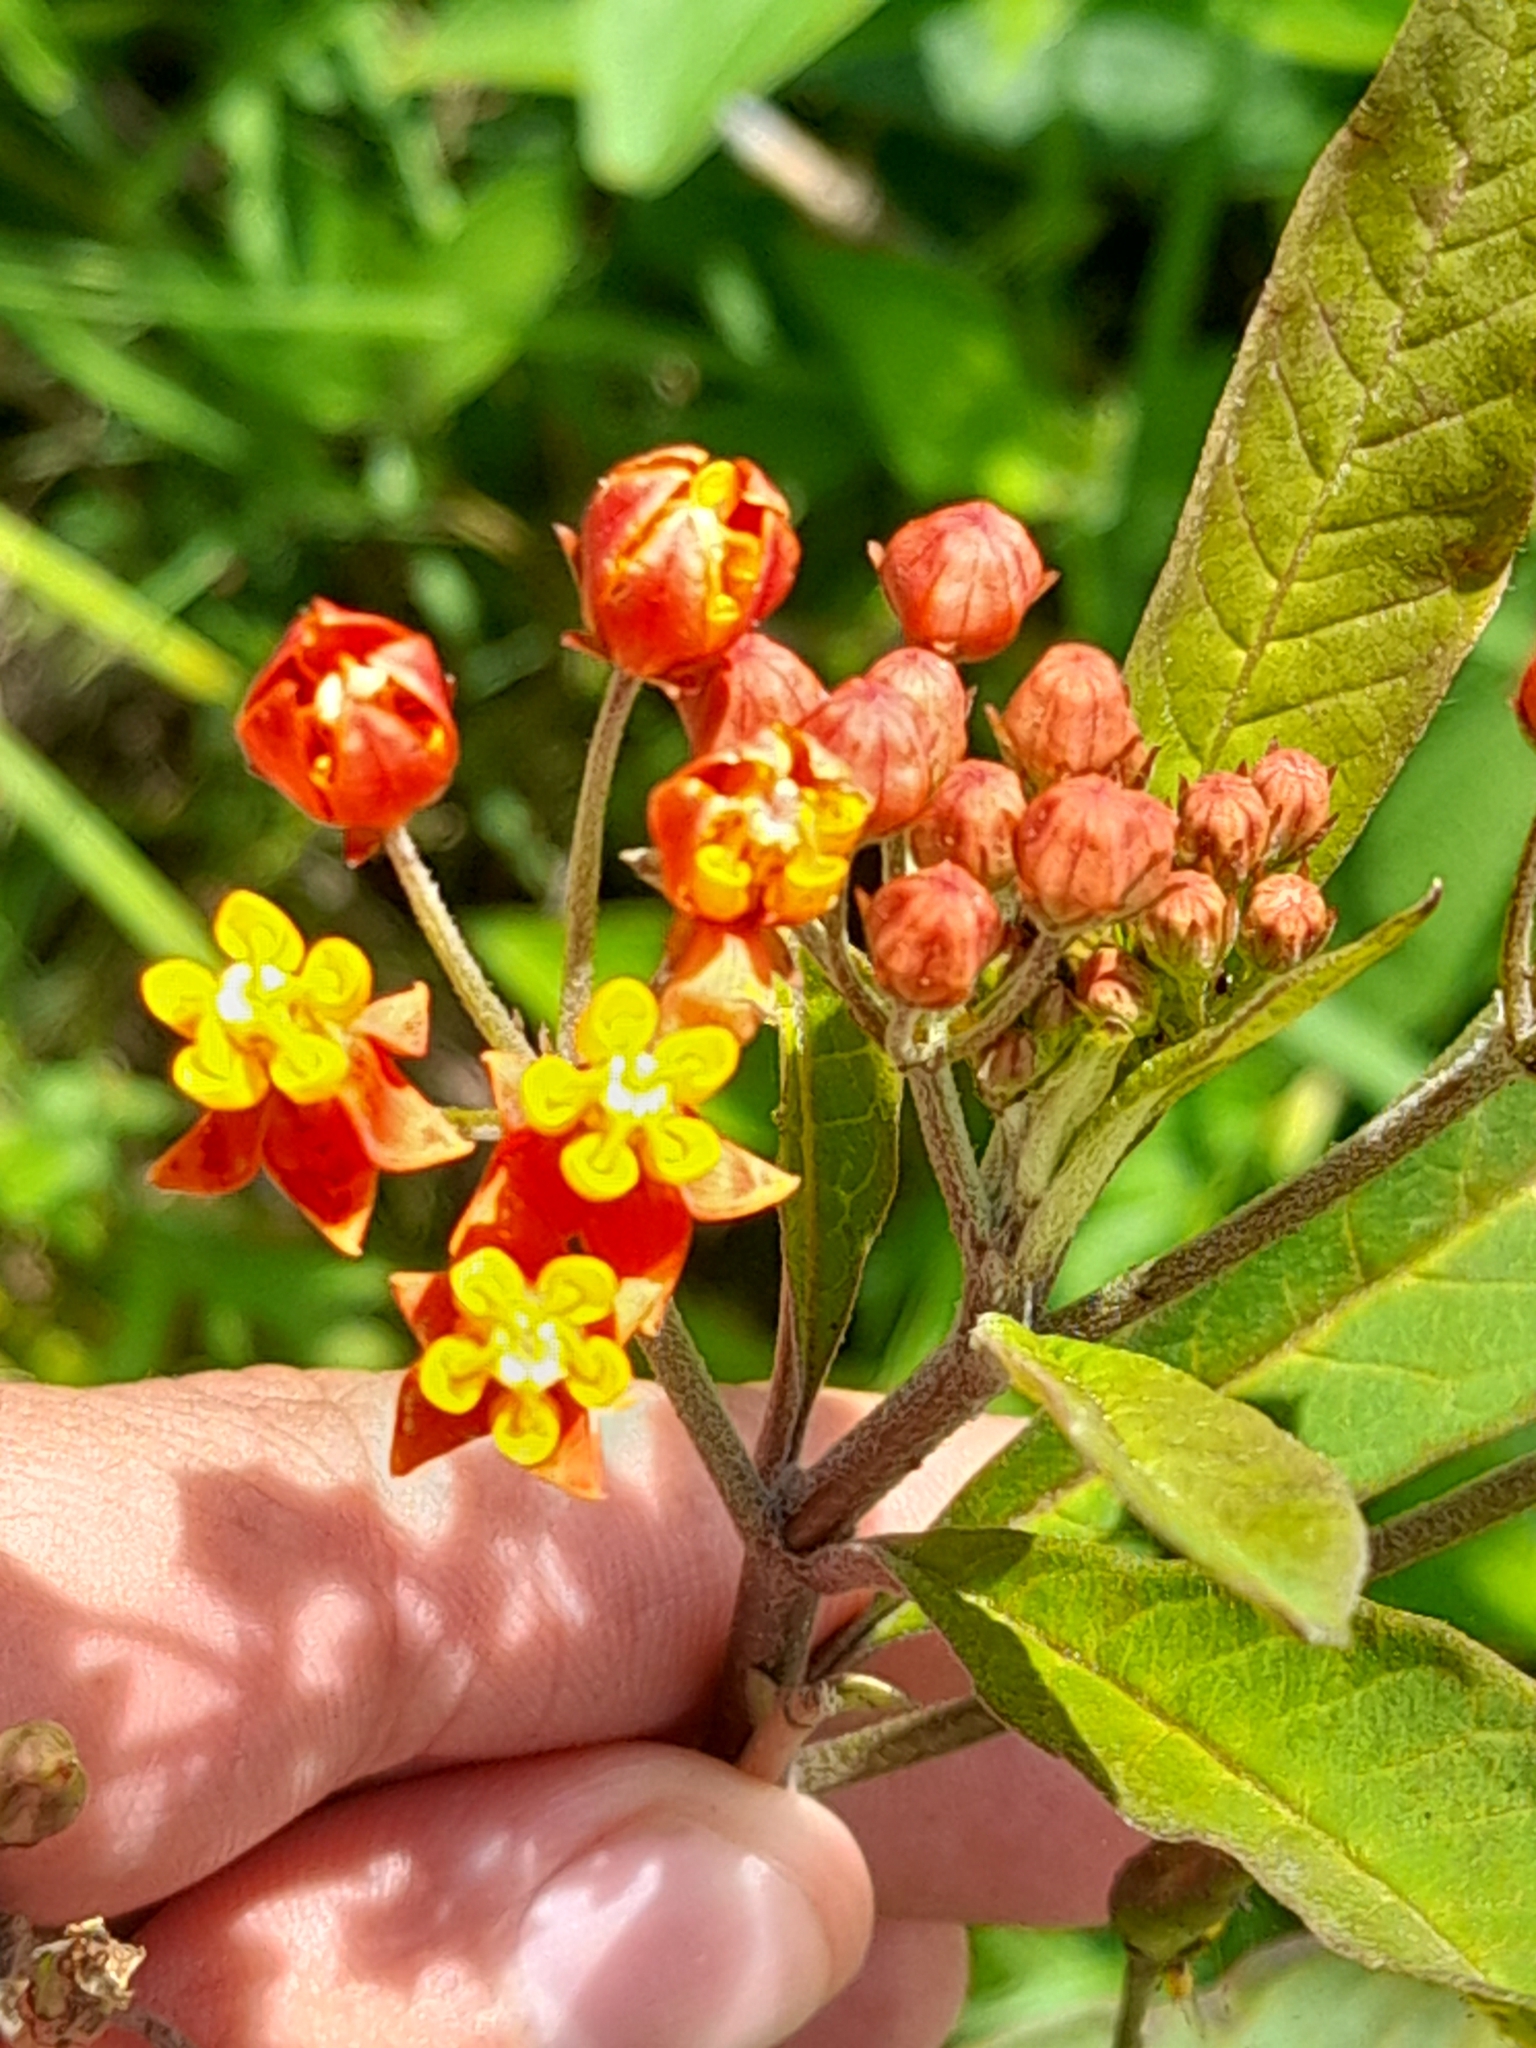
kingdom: Plantae
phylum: Tracheophyta
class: Magnoliopsida
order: Gentianales
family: Apocynaceae
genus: Asclepias
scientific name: Asclepias curassavica
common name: Bloodflower
